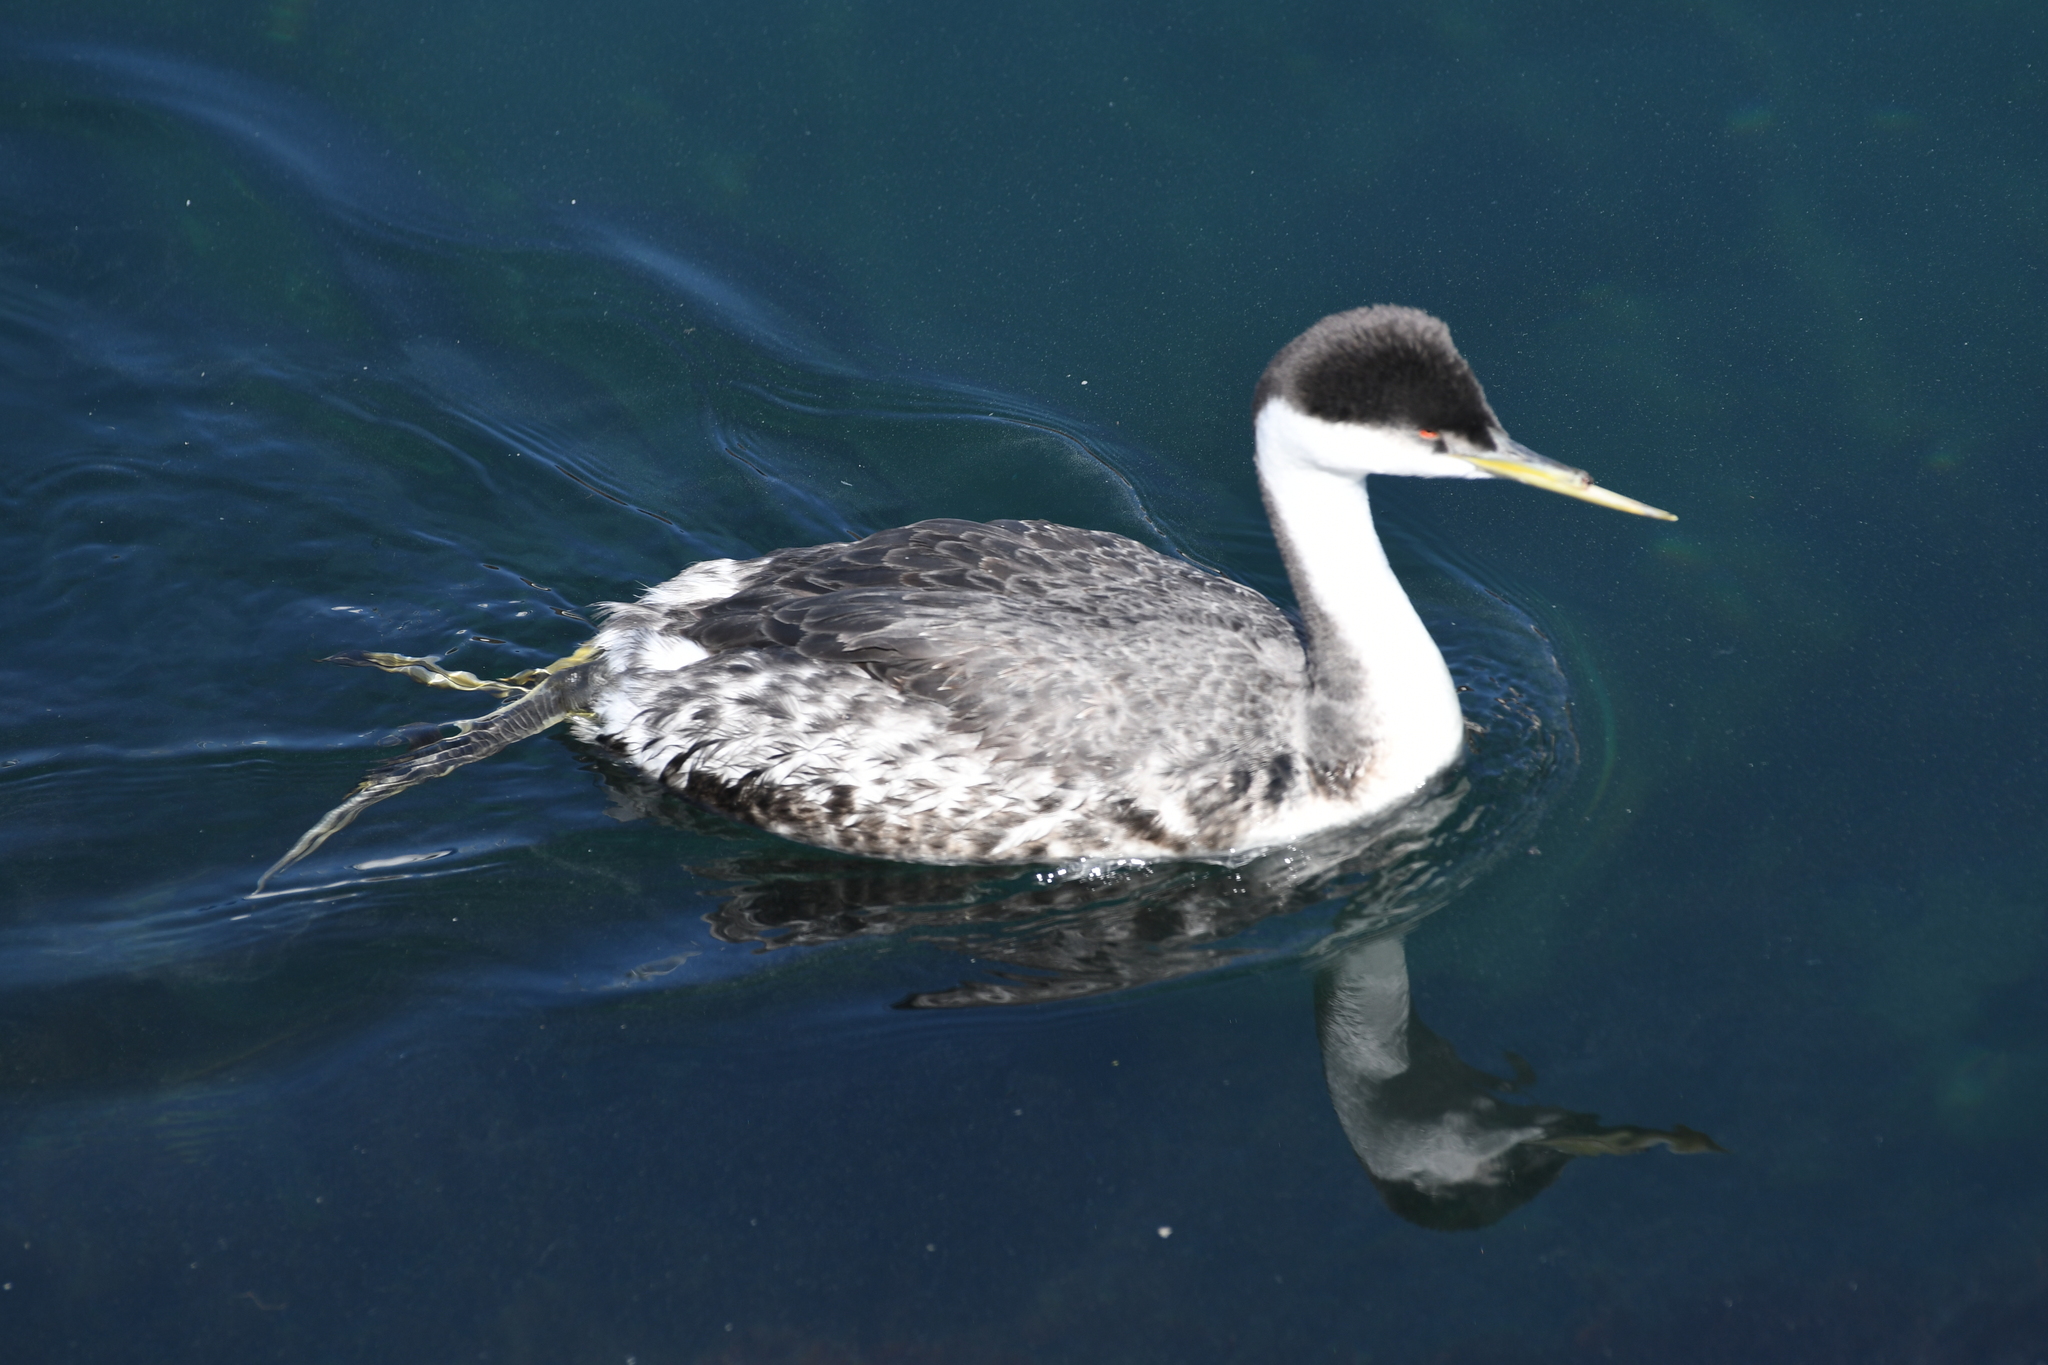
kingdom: Animalia
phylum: Chordata
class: Aves
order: Podicipediformes
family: Podicipedidae
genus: Aechmophorus
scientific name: Aechmophorus occidentalis
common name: Western grebe
